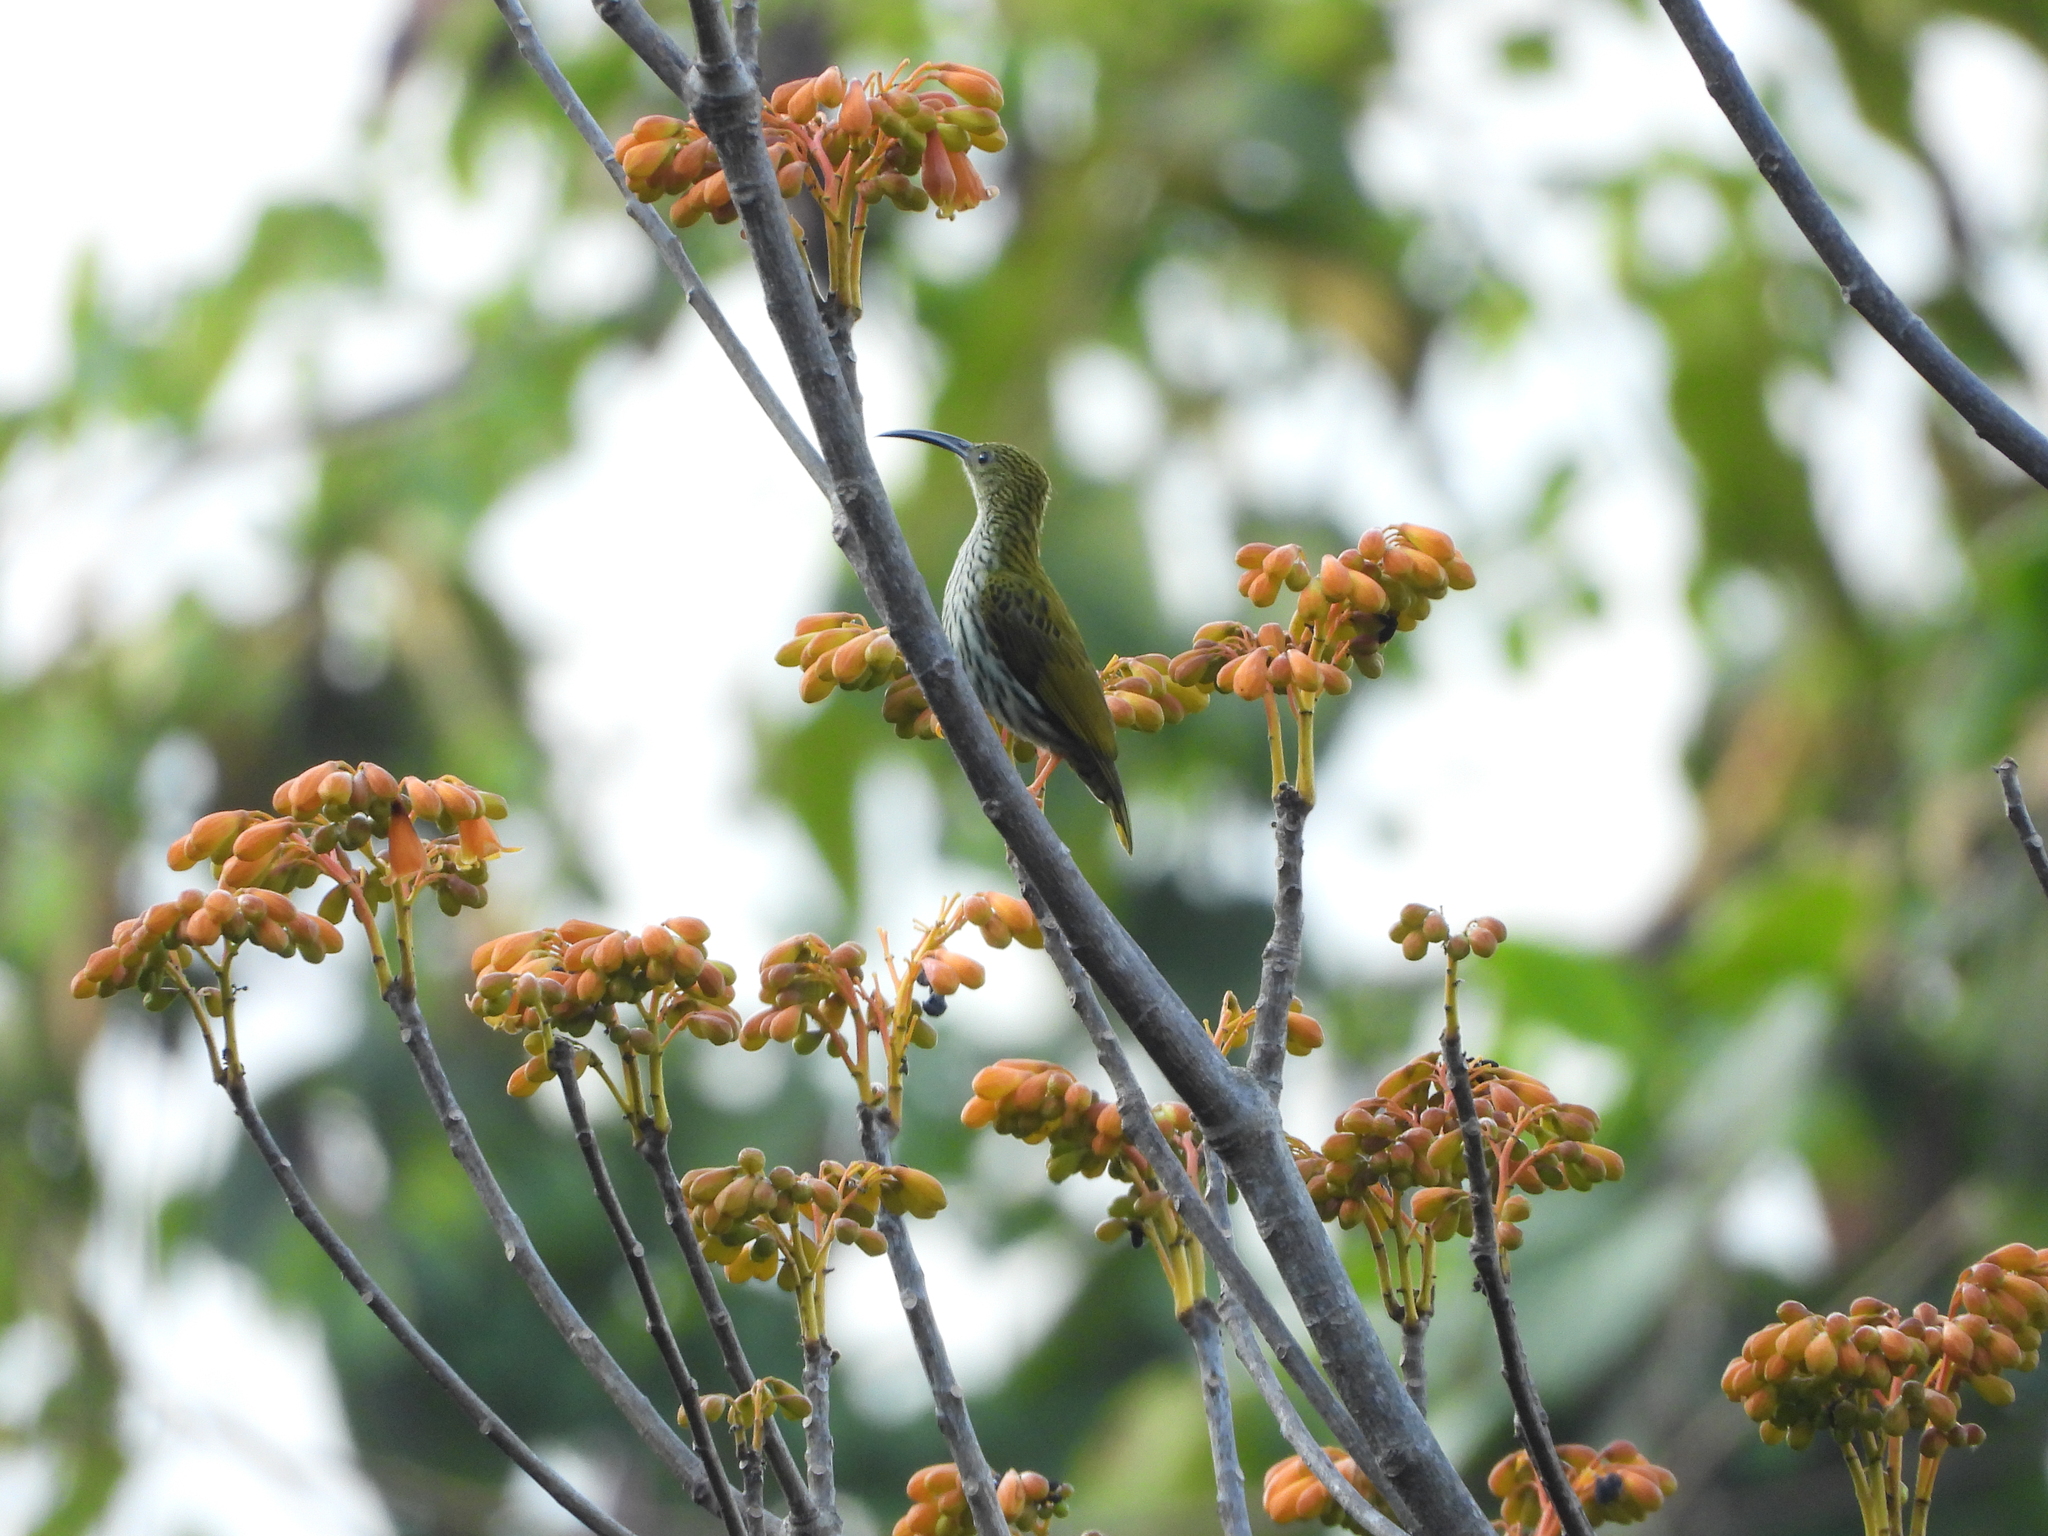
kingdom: Animalia
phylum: Chordata
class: Aves
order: Passeriformes
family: Nectariniidae
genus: Arachnothera
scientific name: Arachnothera magna
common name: Streaked spiderhunter
